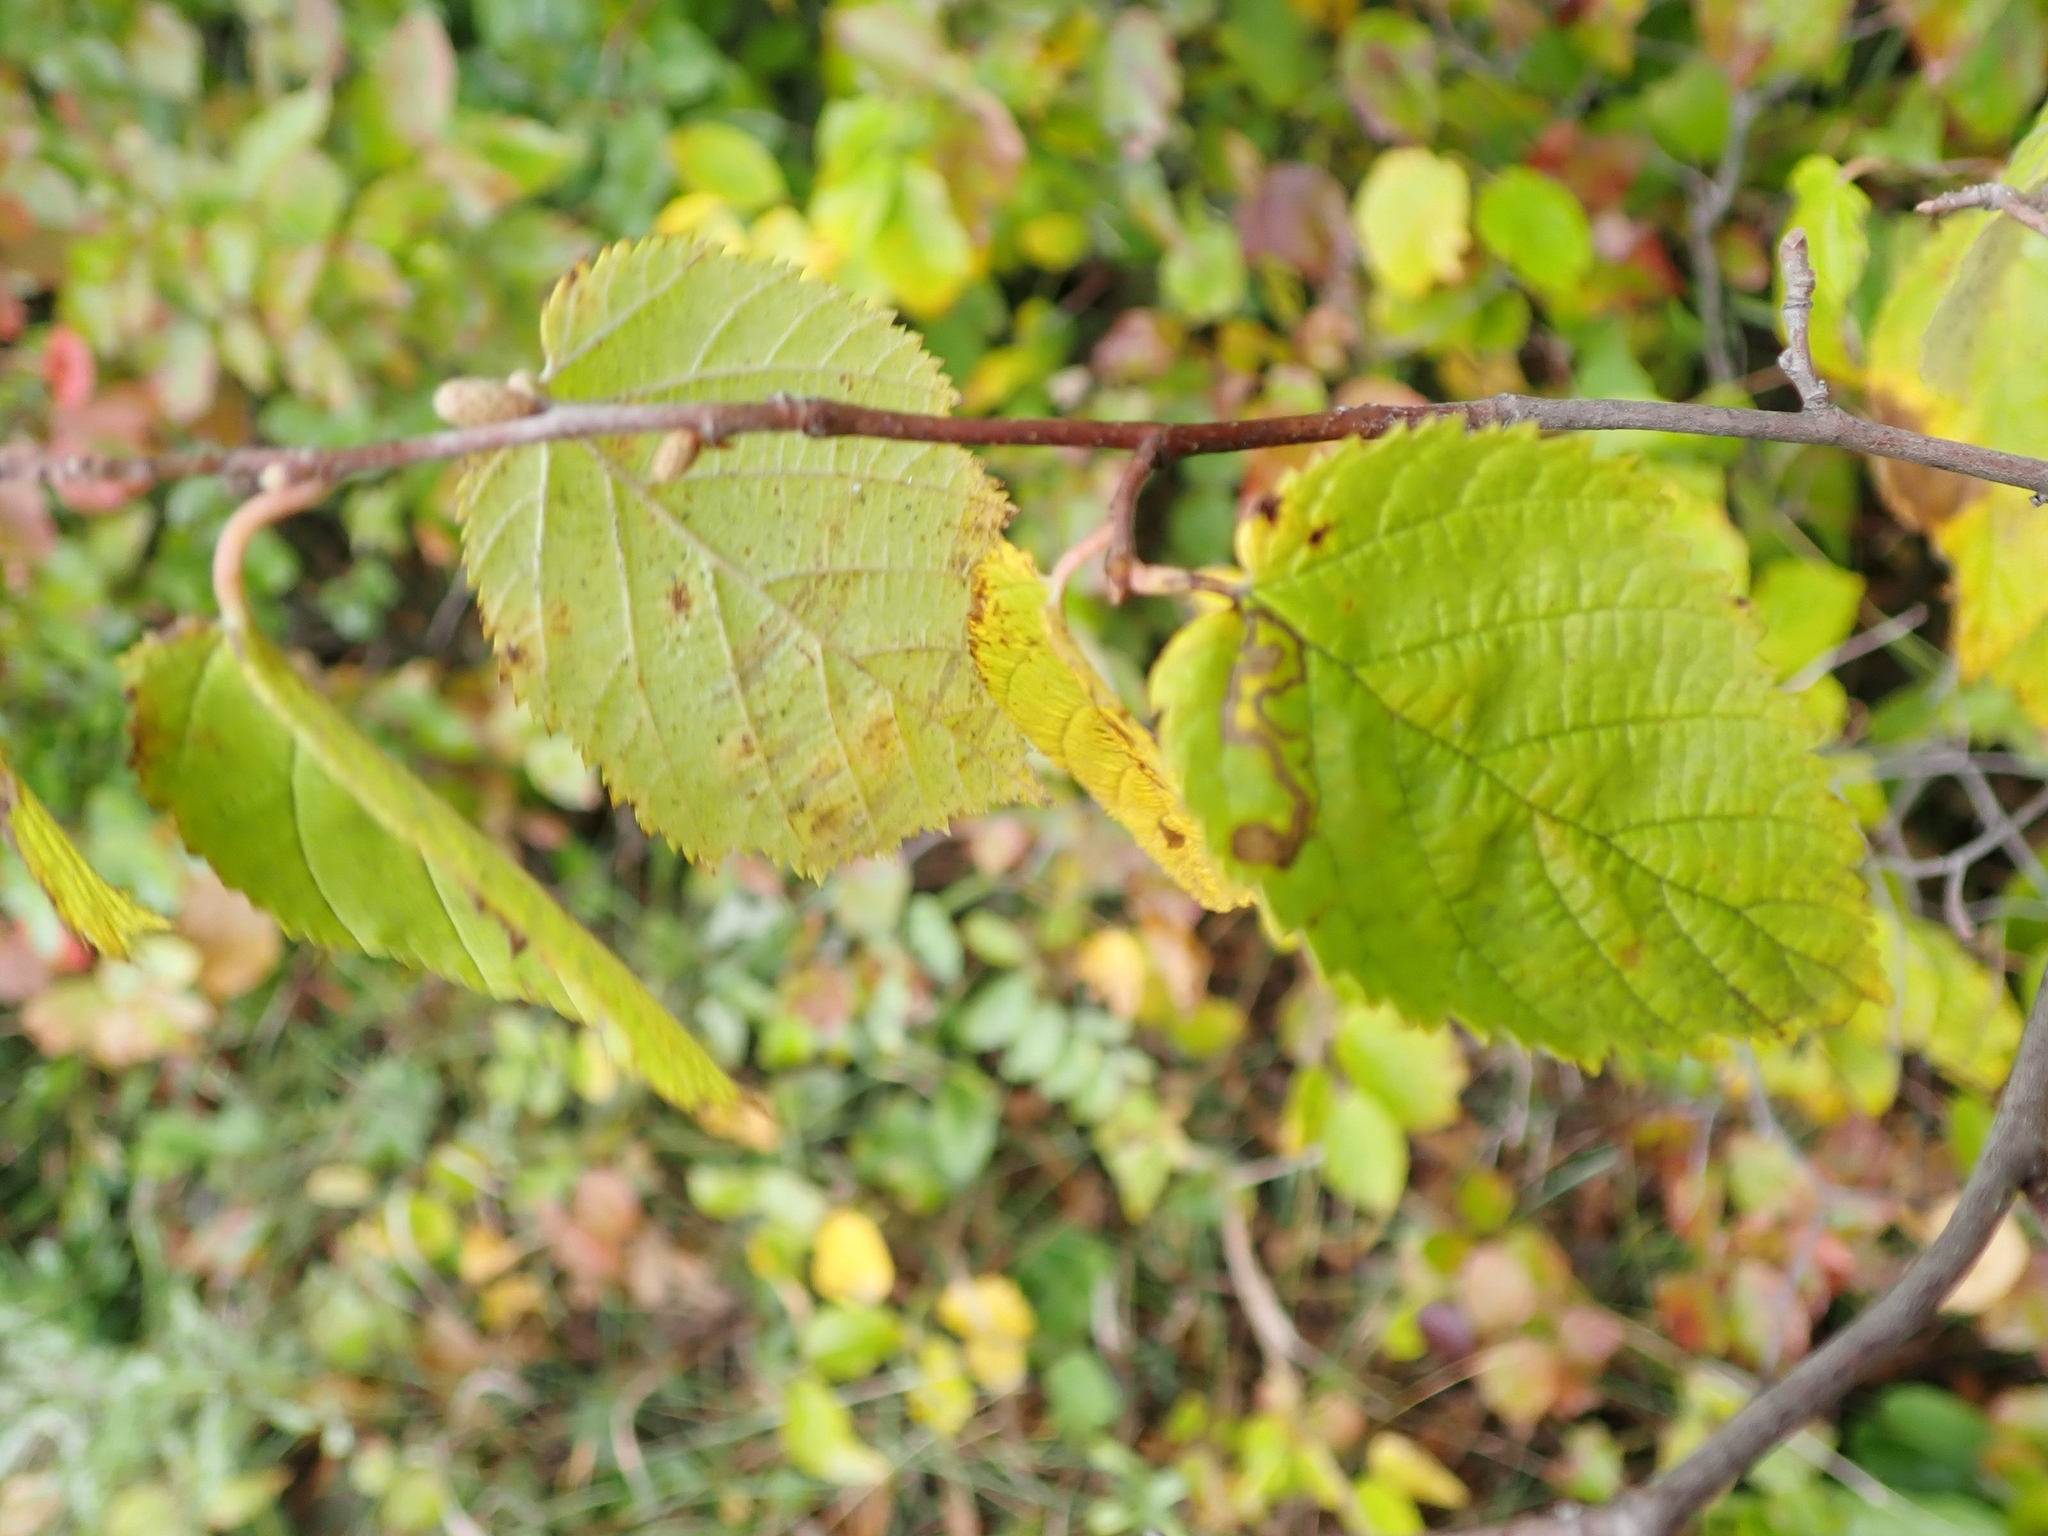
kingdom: Plantae
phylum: Tracheophyta
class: Magnoliopsida
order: Fagales
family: Betulaceae
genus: Corylus
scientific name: Corylus cornuta
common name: Beaked hazel
